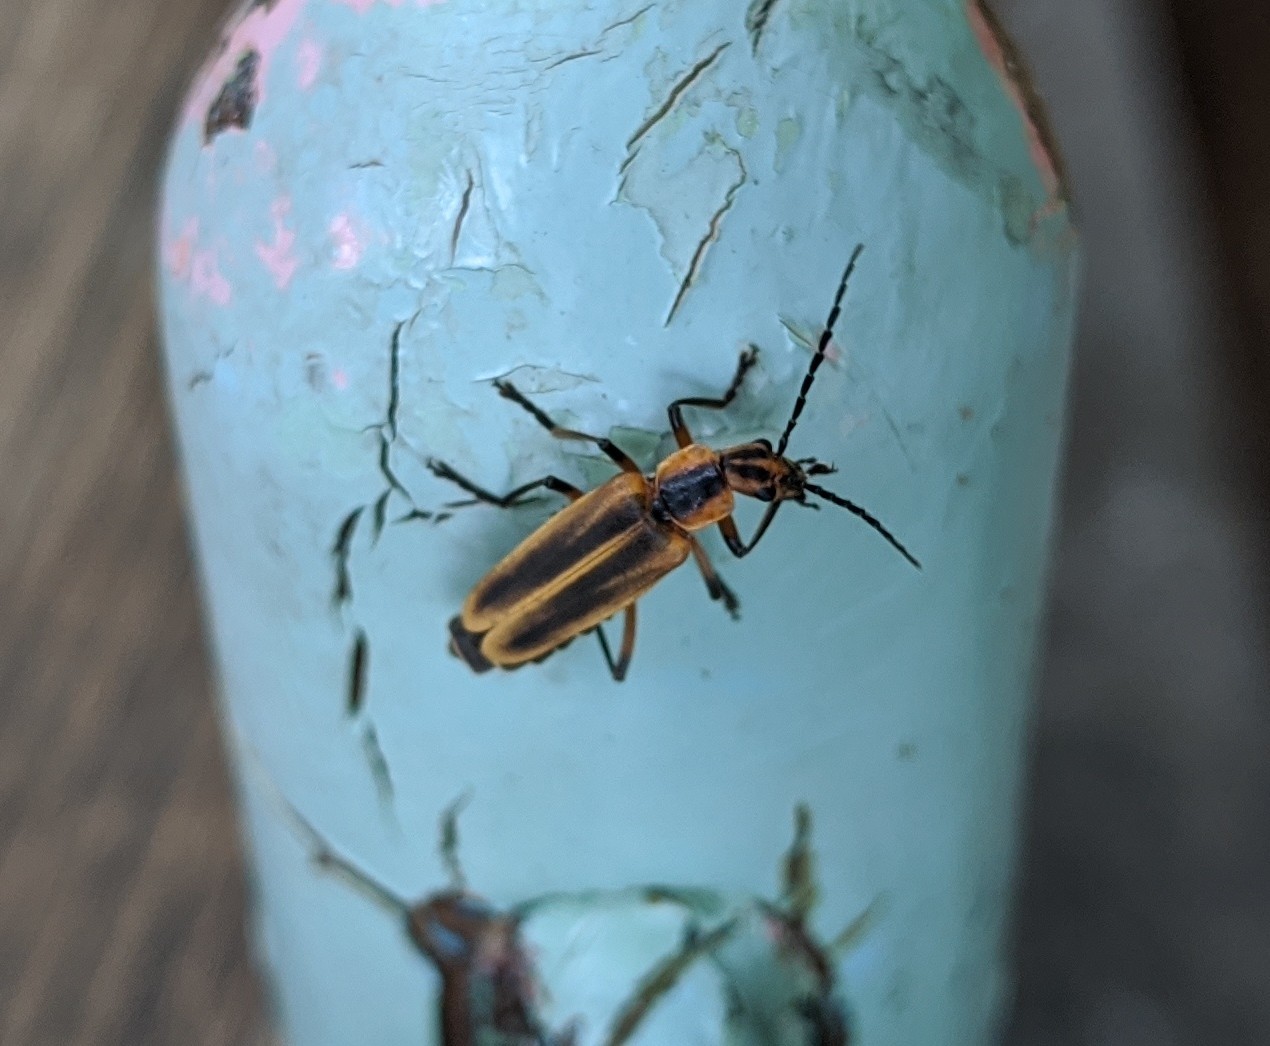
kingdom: Animalia
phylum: Arthropoda
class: Insecta
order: Coleoptera
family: Cantharidae
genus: Chauliognathus
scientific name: Chauliognathus marginatus
